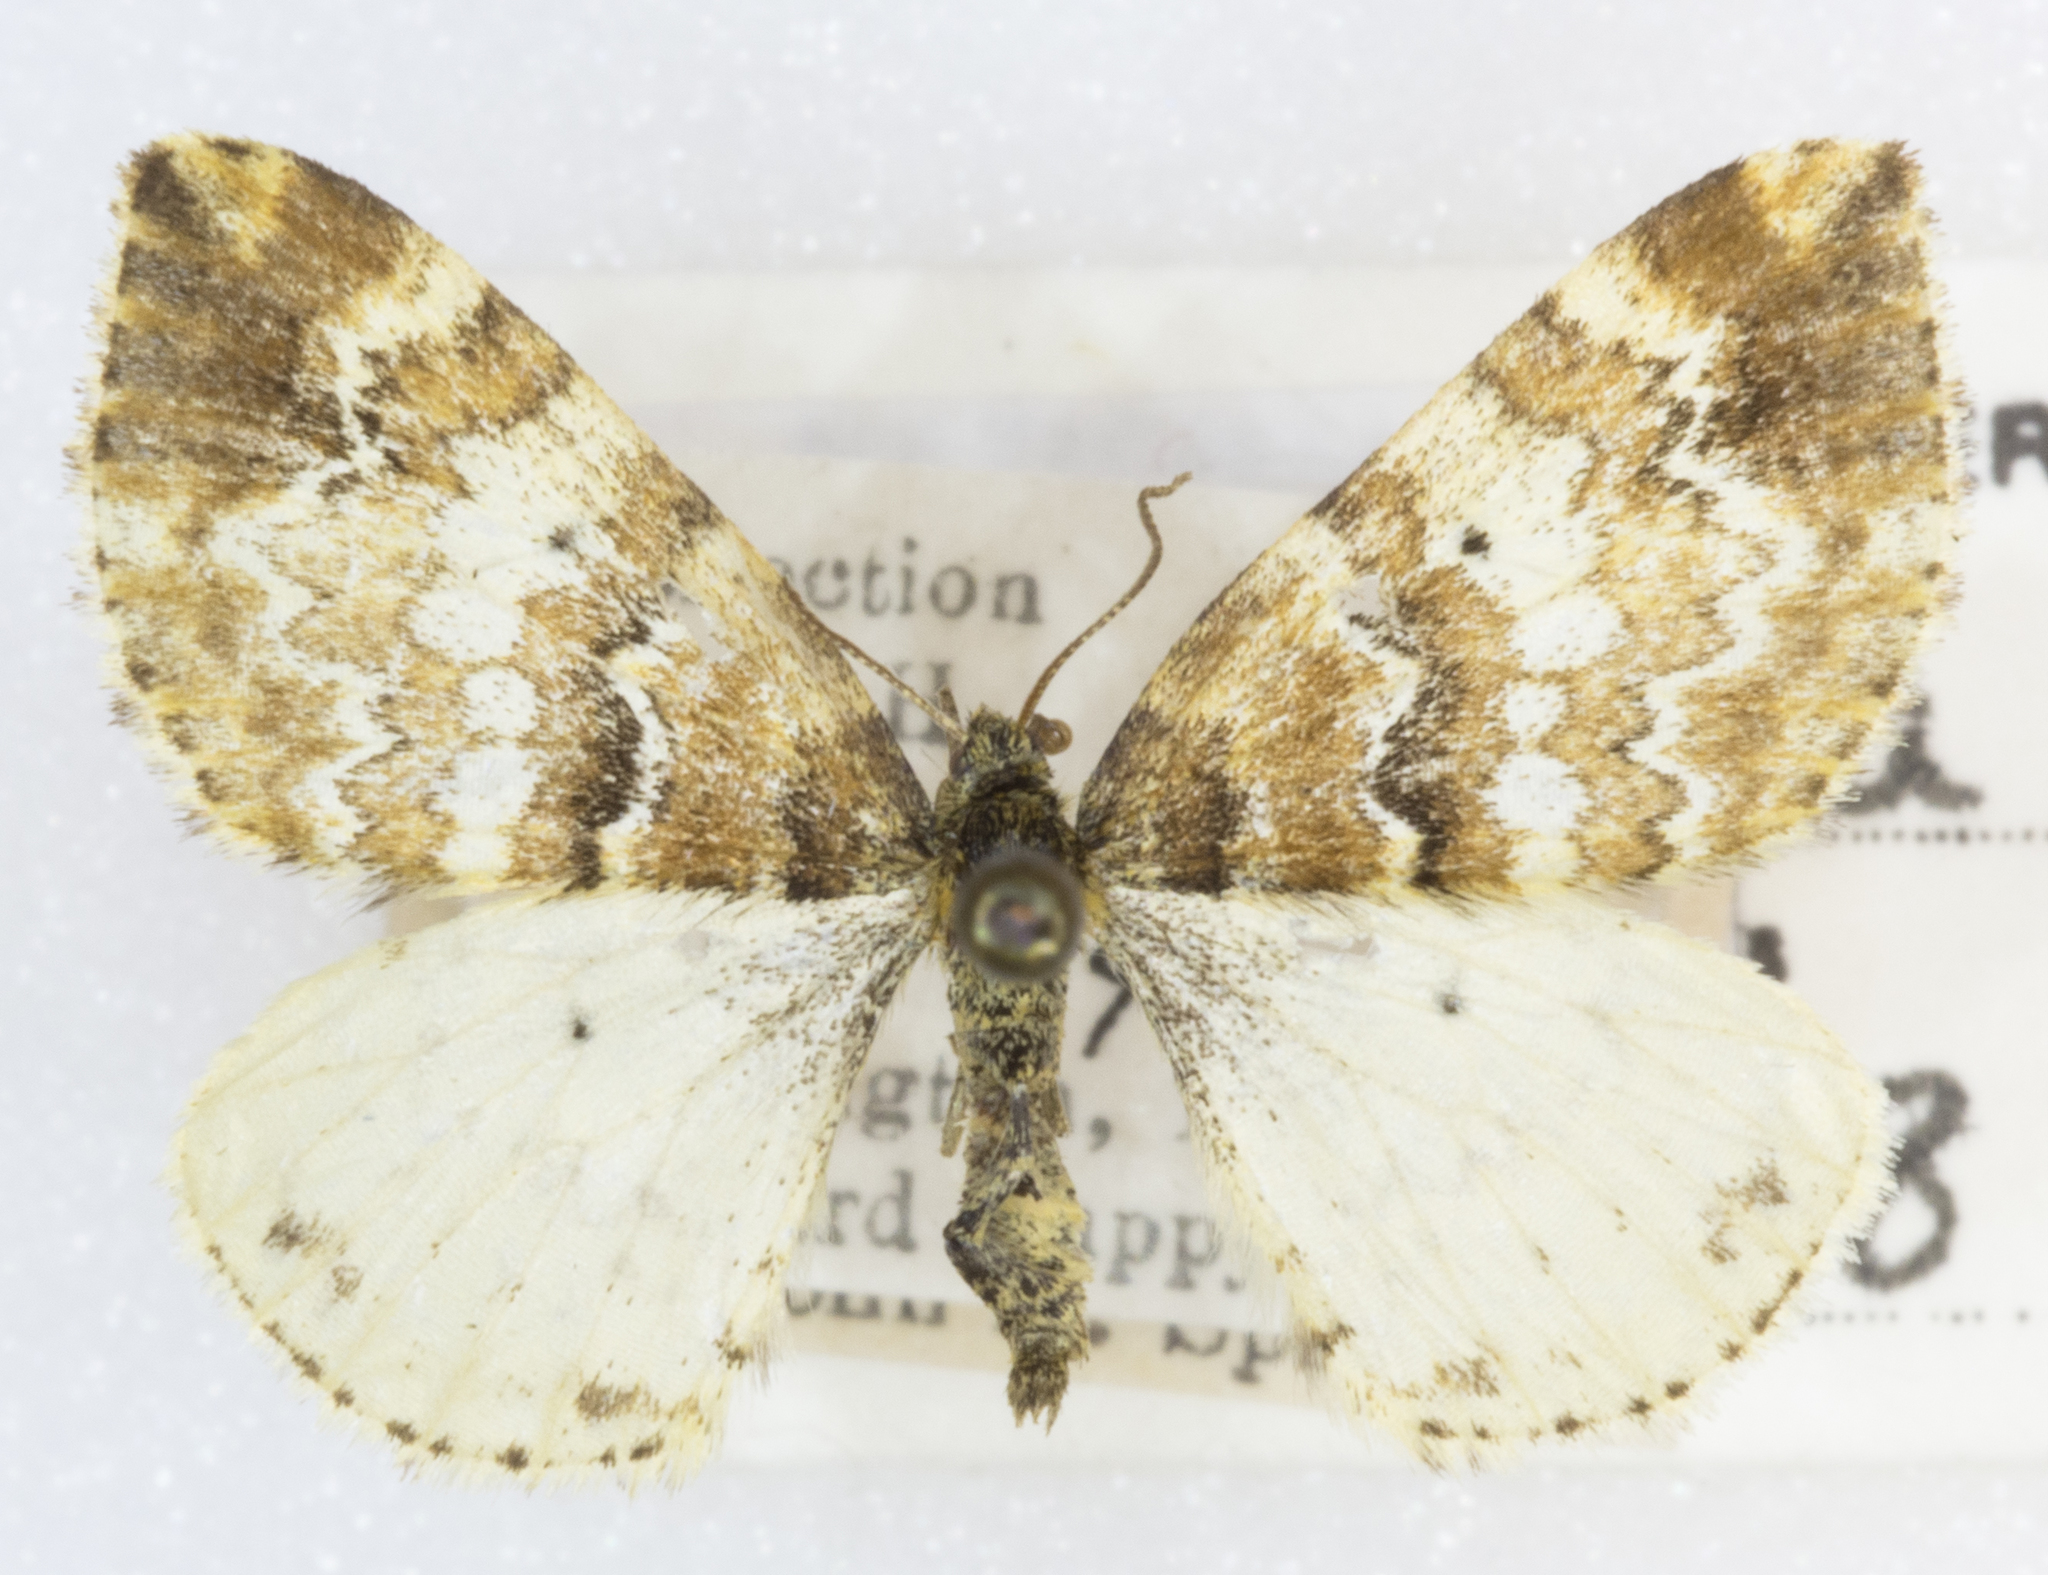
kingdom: Animalia
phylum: Arthropoda
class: Insecta
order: Lepidoptera
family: Geometridae
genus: Enchoria
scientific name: Enchoria lacteata
